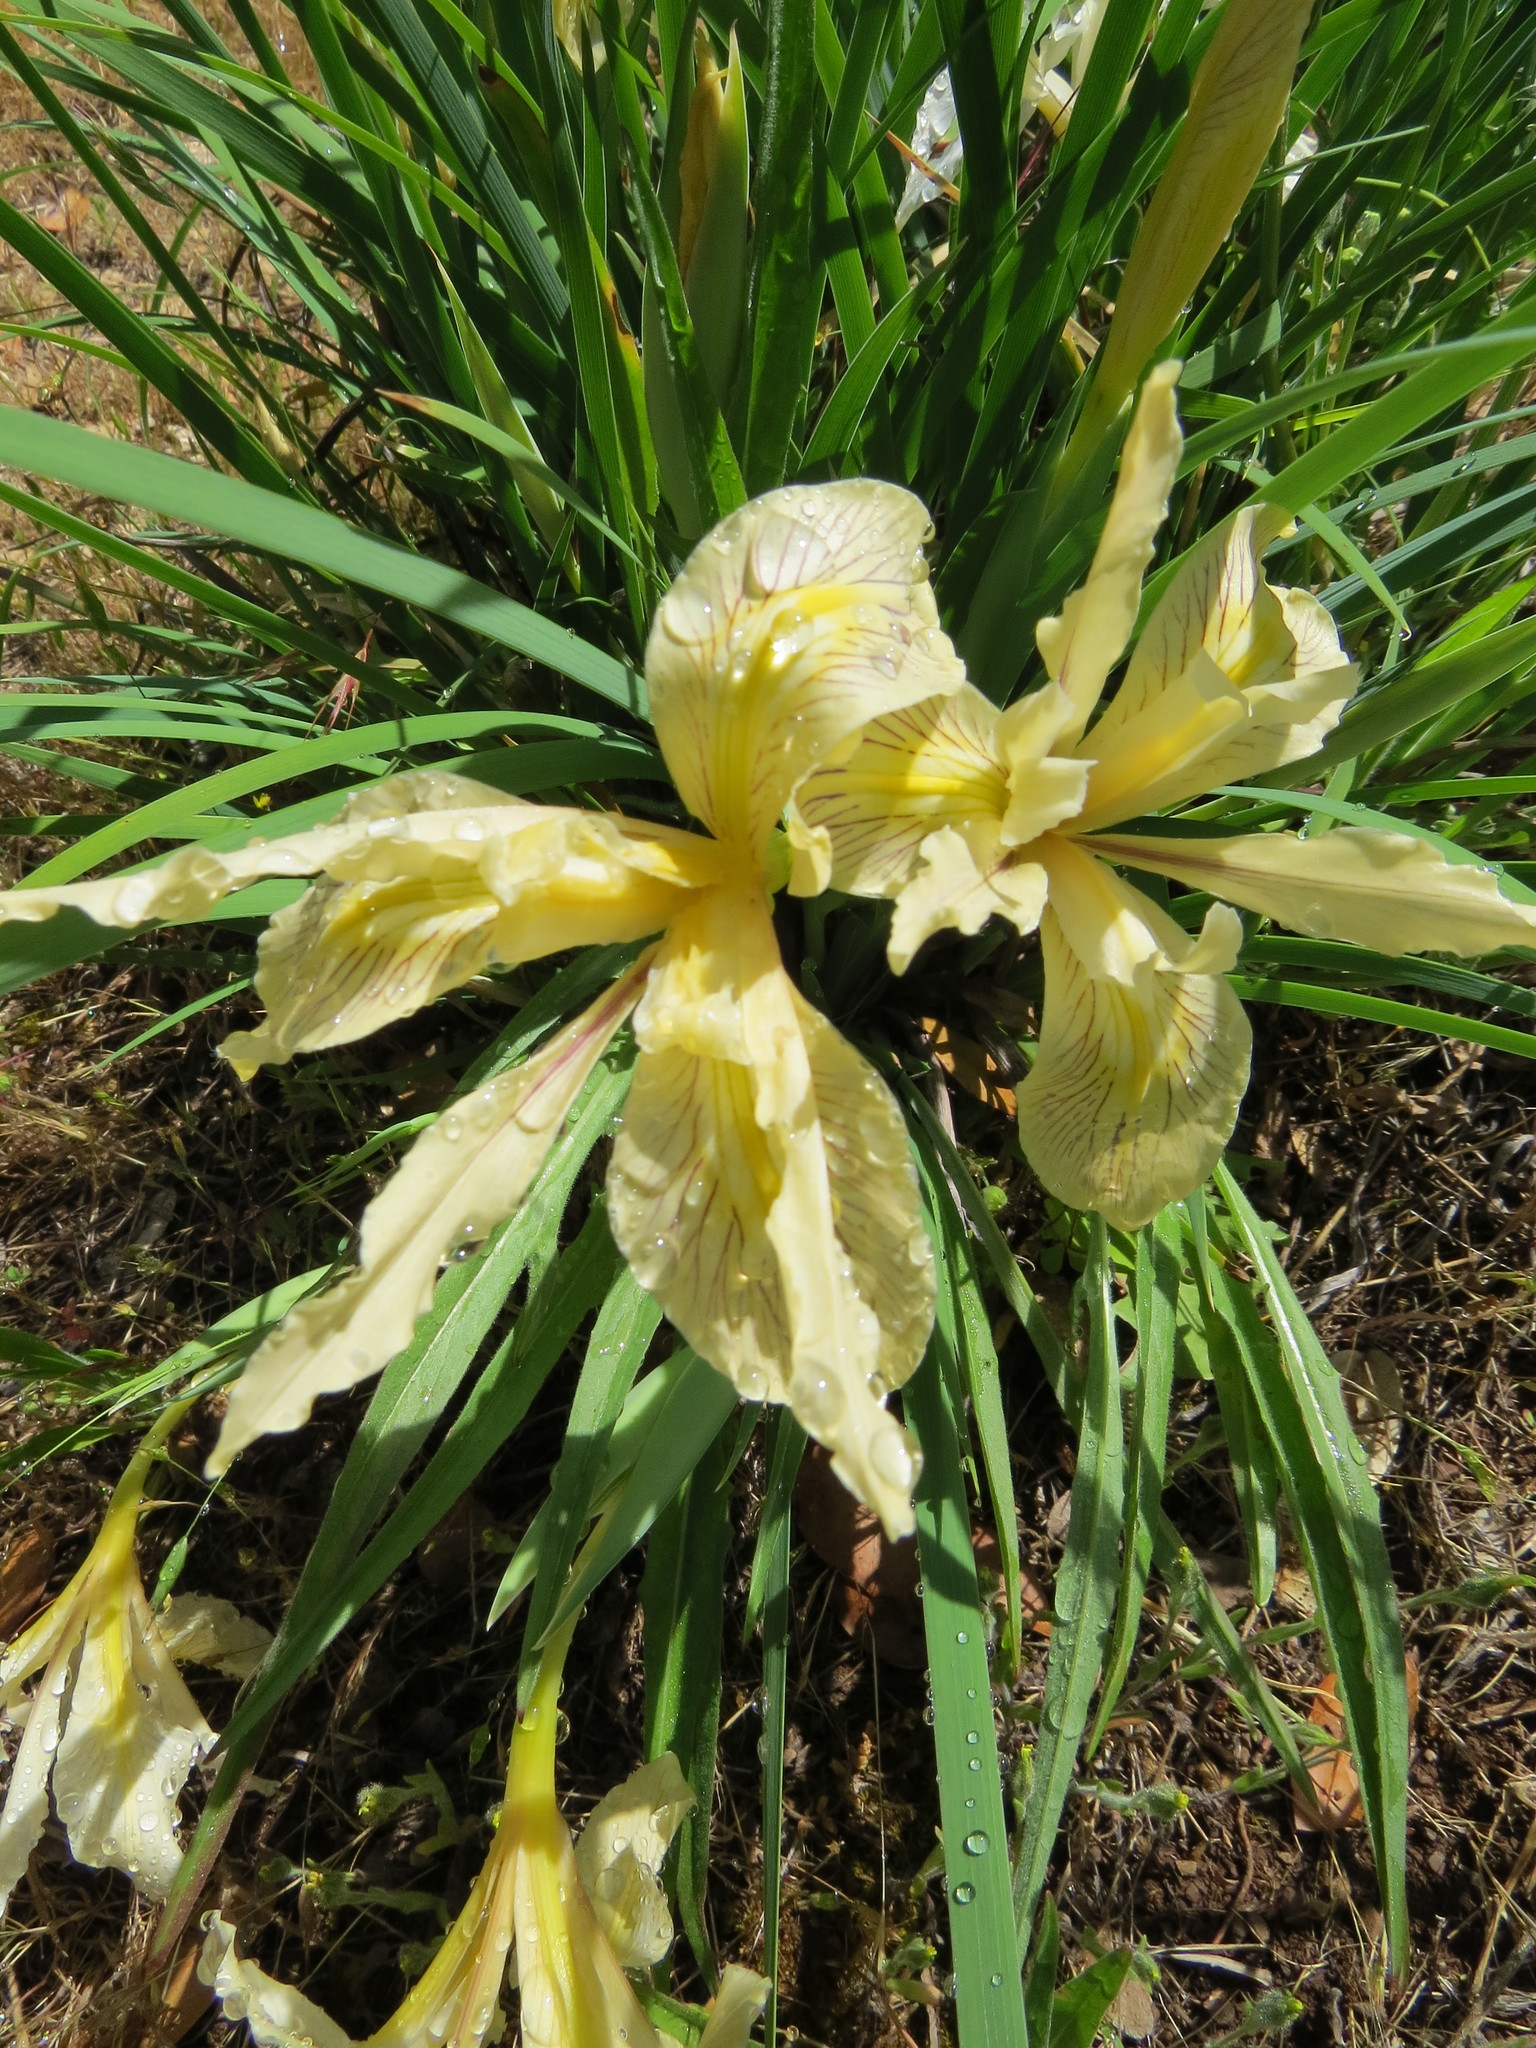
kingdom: Plantae
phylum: Tracheophyta
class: Liliopsida
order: Asparagales
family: Iridaceae
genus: Iris
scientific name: Iris fernaldii
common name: Fernald's iris
